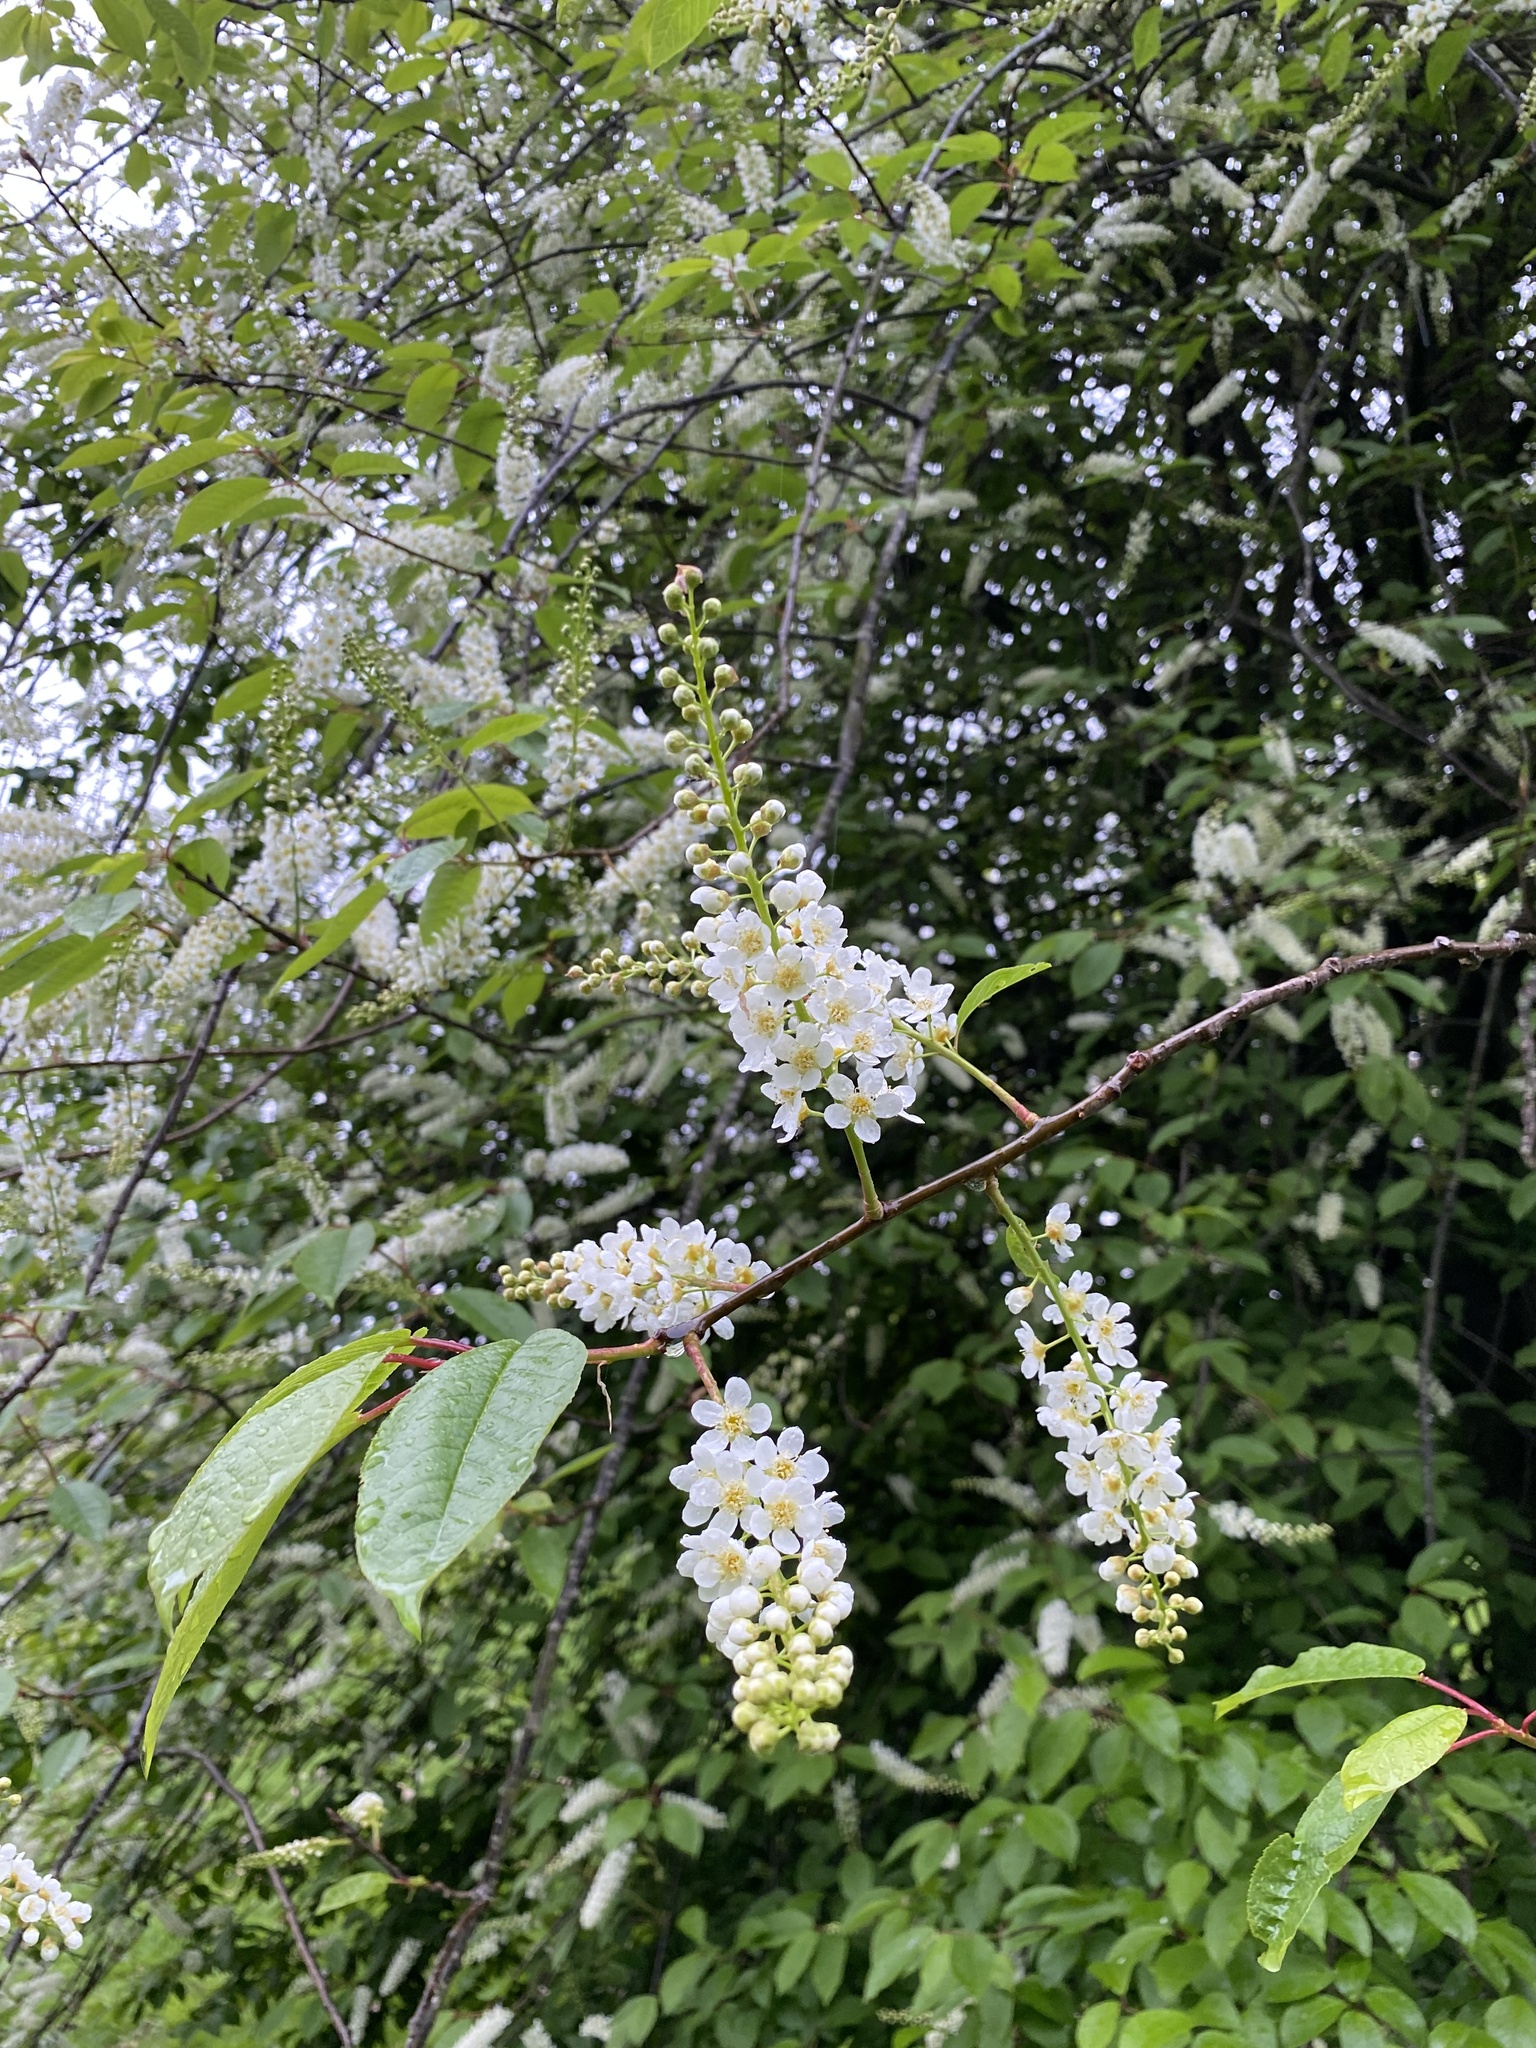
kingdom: Plantae
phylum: Tracheophyta
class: Magnoliopsida
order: Rosales
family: Rosaceae
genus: Prunus
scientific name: Prunus padus
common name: Bird cherry
